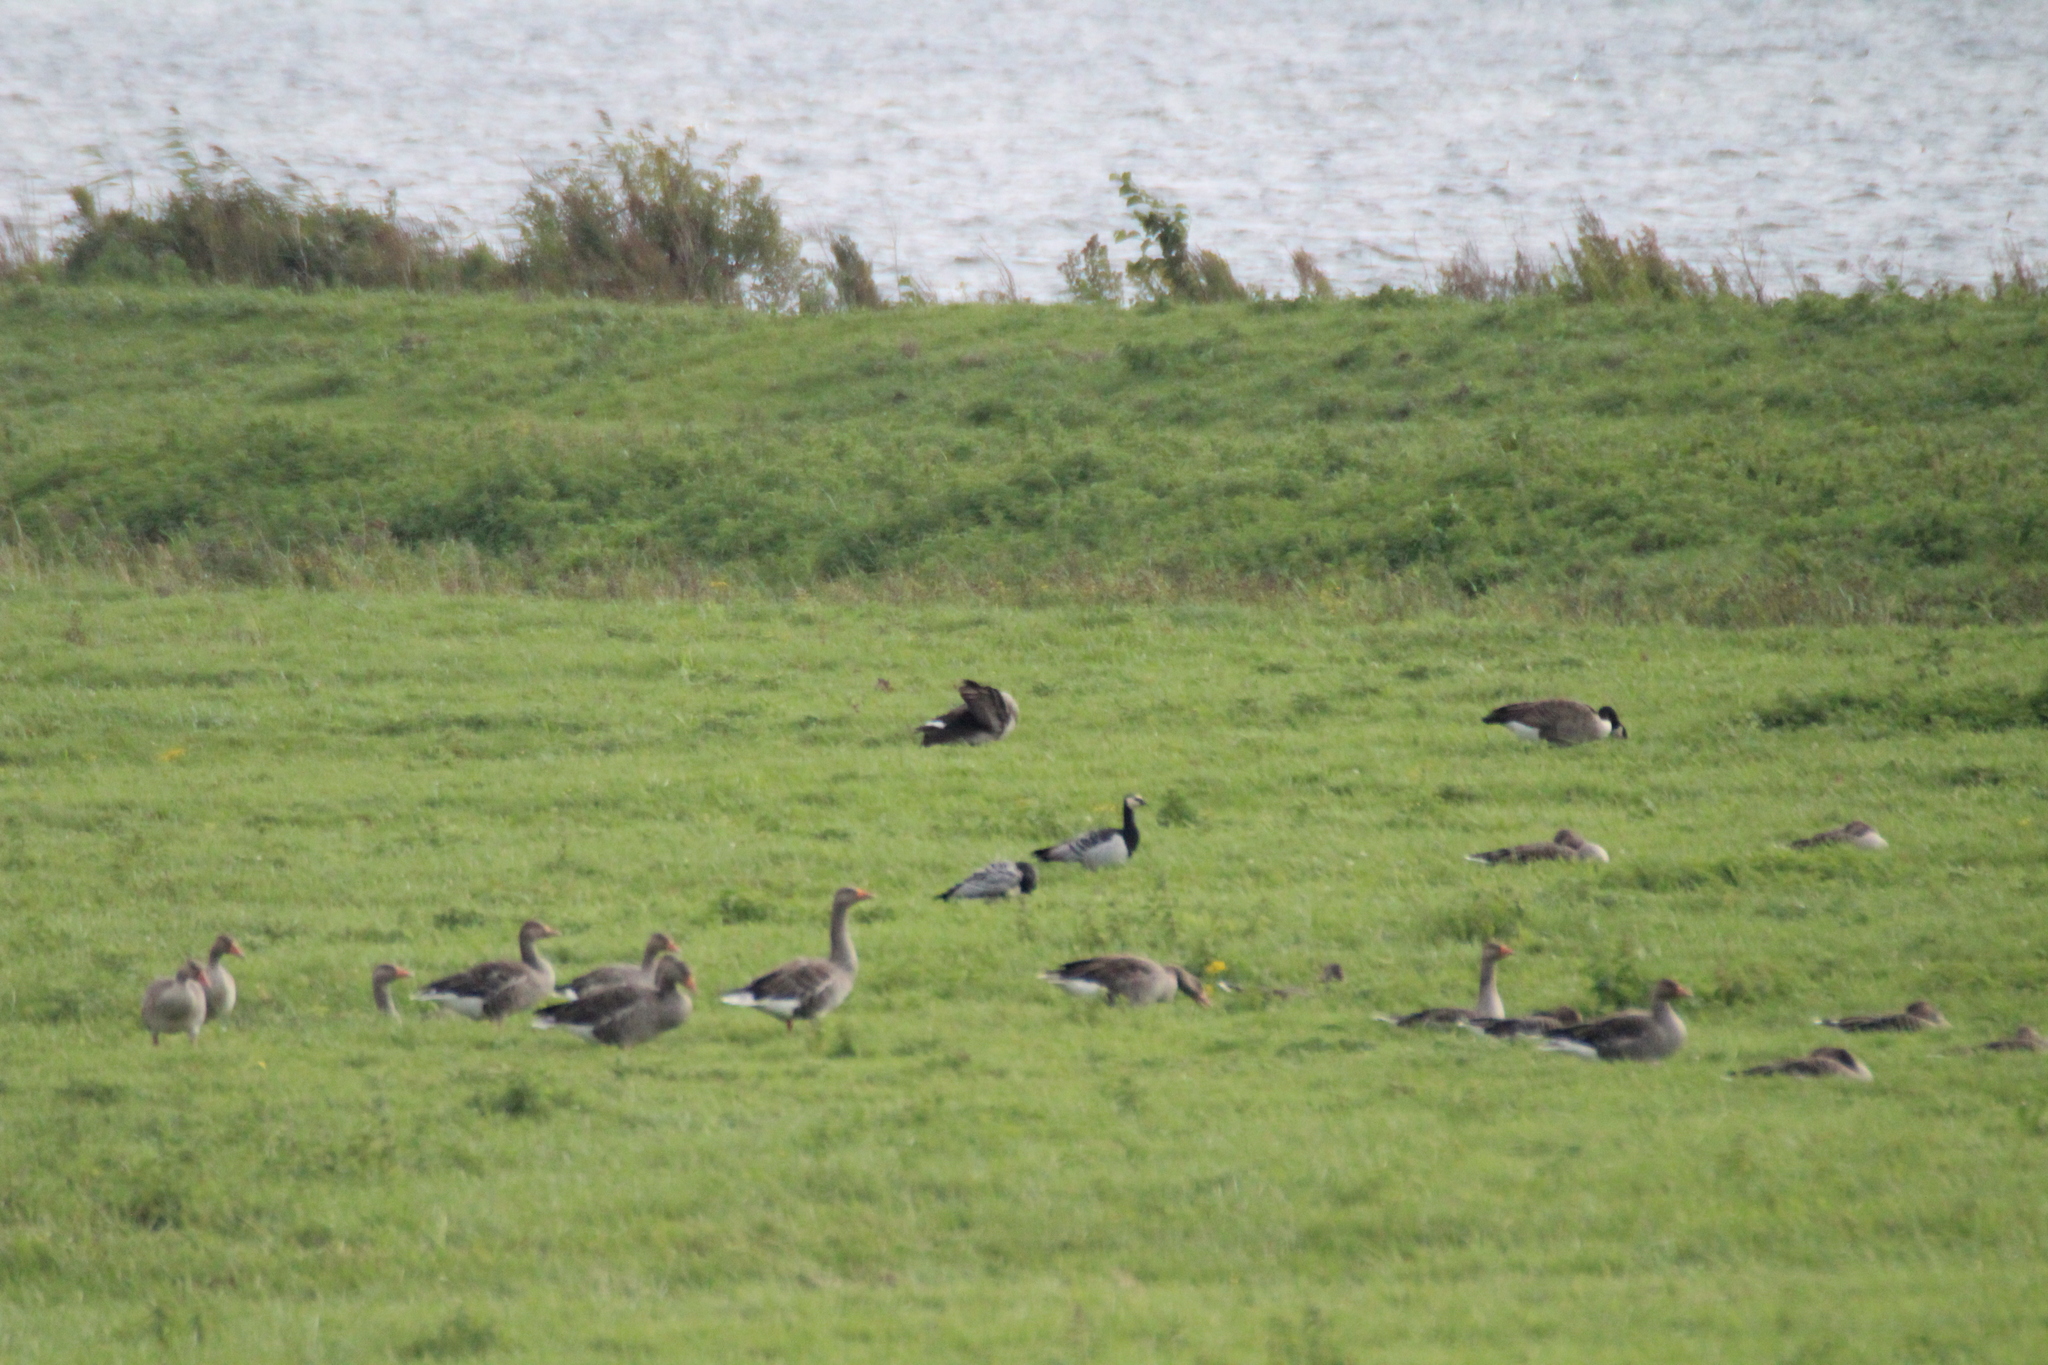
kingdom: Animalia
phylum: Chordata
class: Aves
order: Anseriformes
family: Anatidae
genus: Branta
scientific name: Branta leucopsis
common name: Barnacle goose
